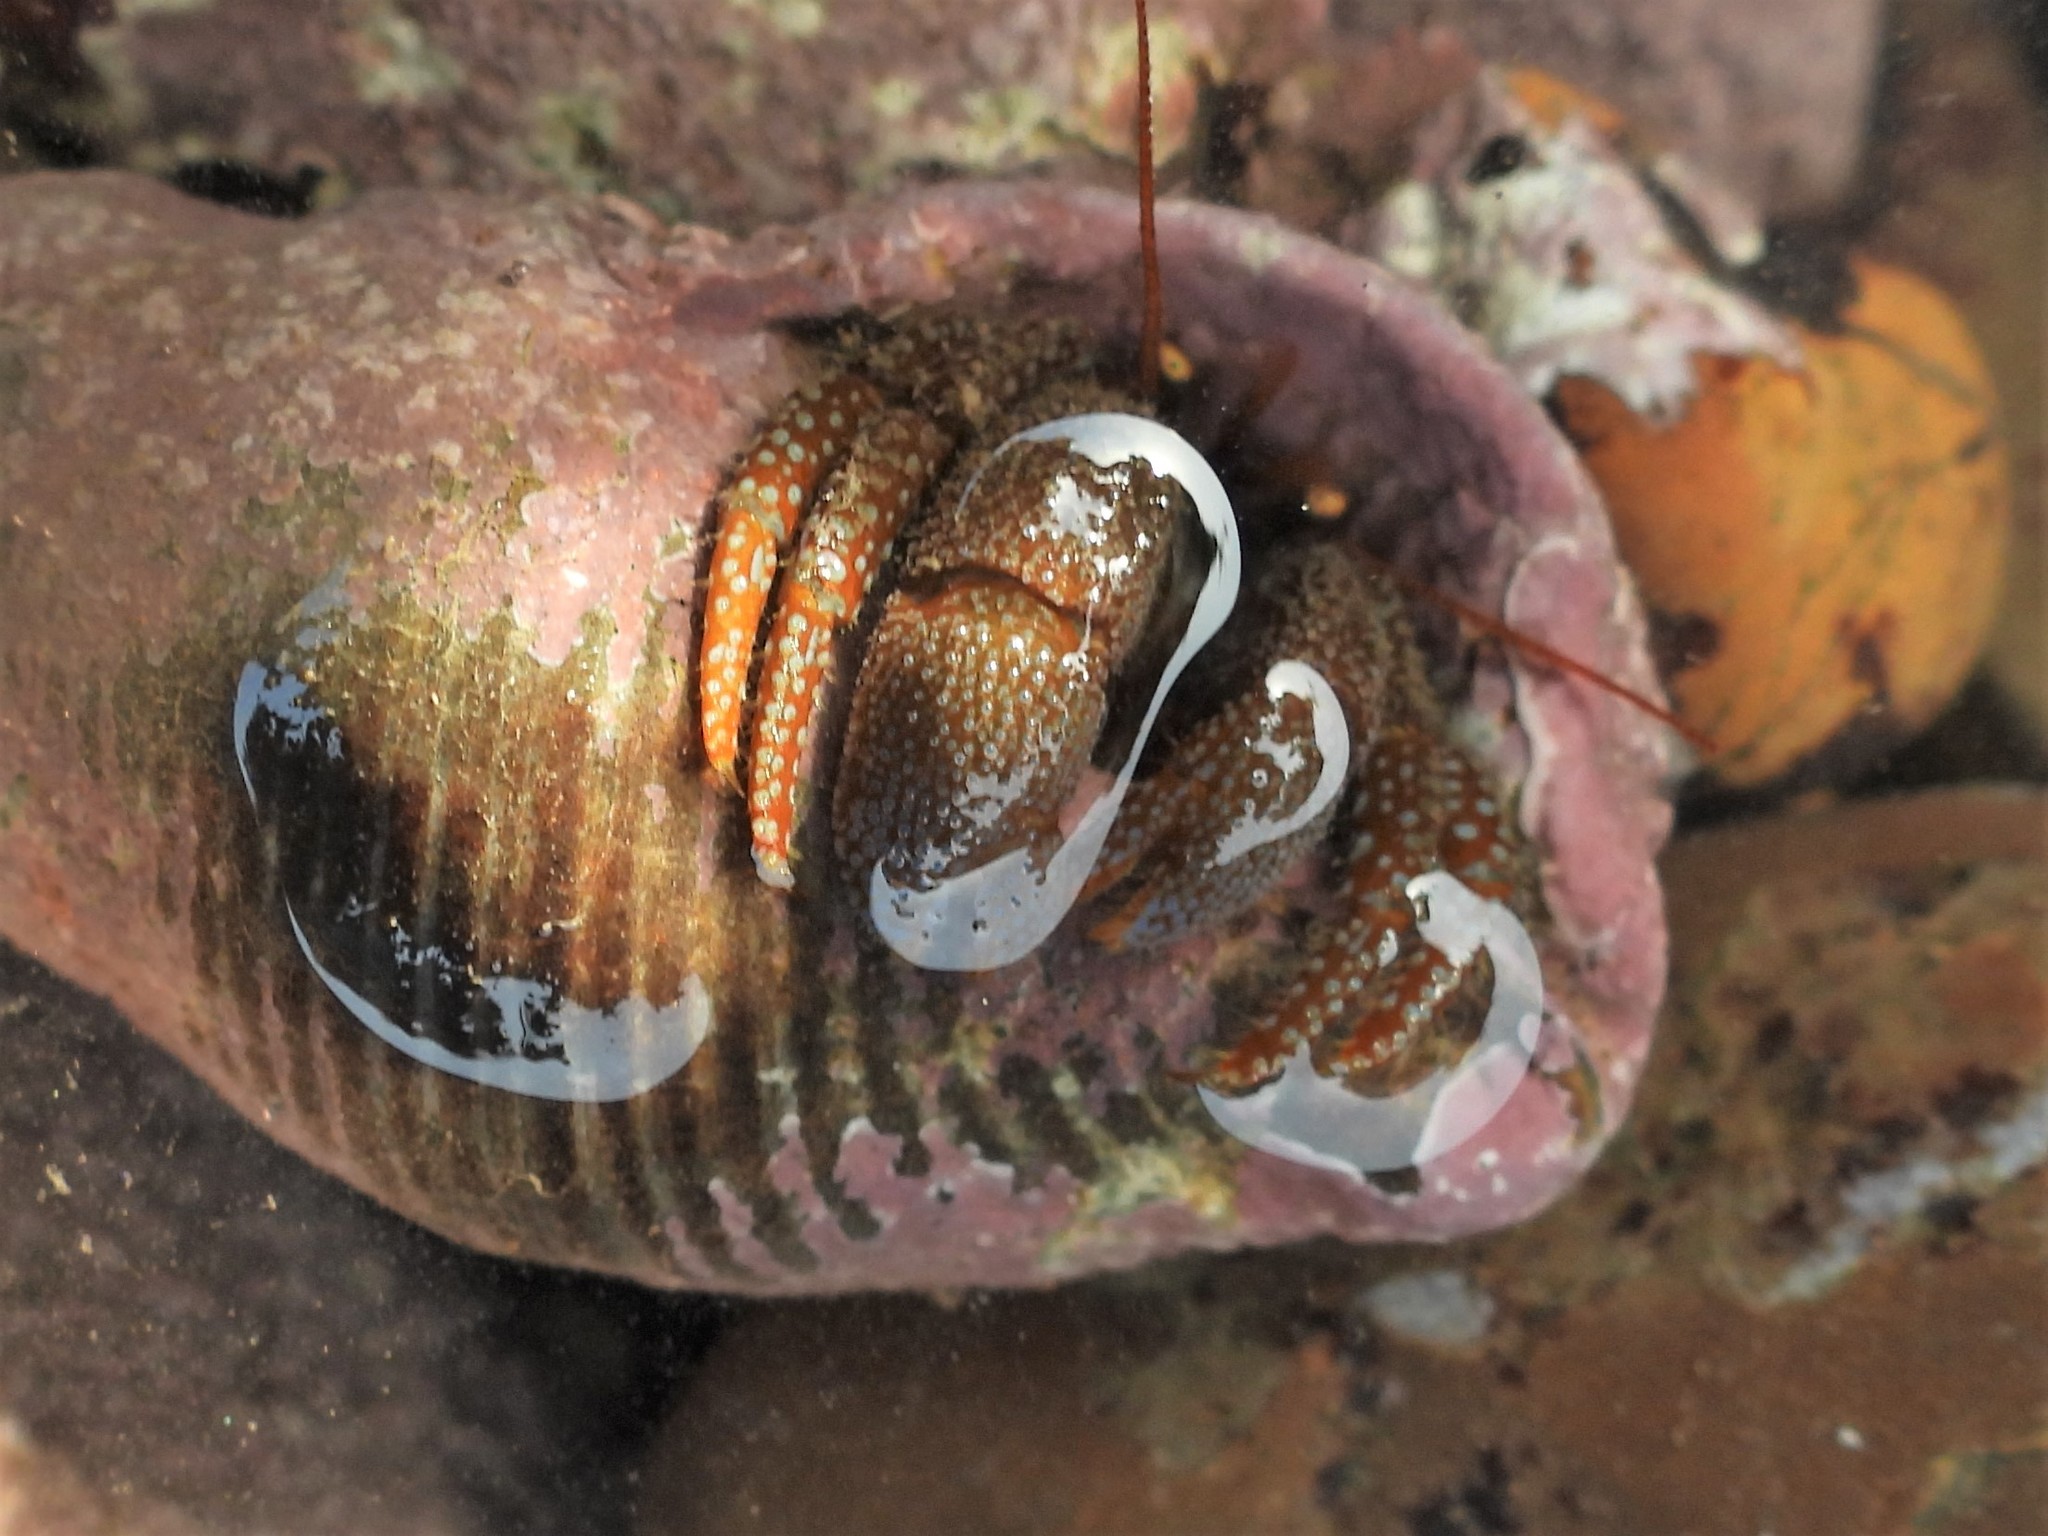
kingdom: Animalia
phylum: Arthropoda
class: Malacostraca
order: Decapoda
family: Paguridae
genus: Pagurus
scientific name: Pagurus granosimanus
